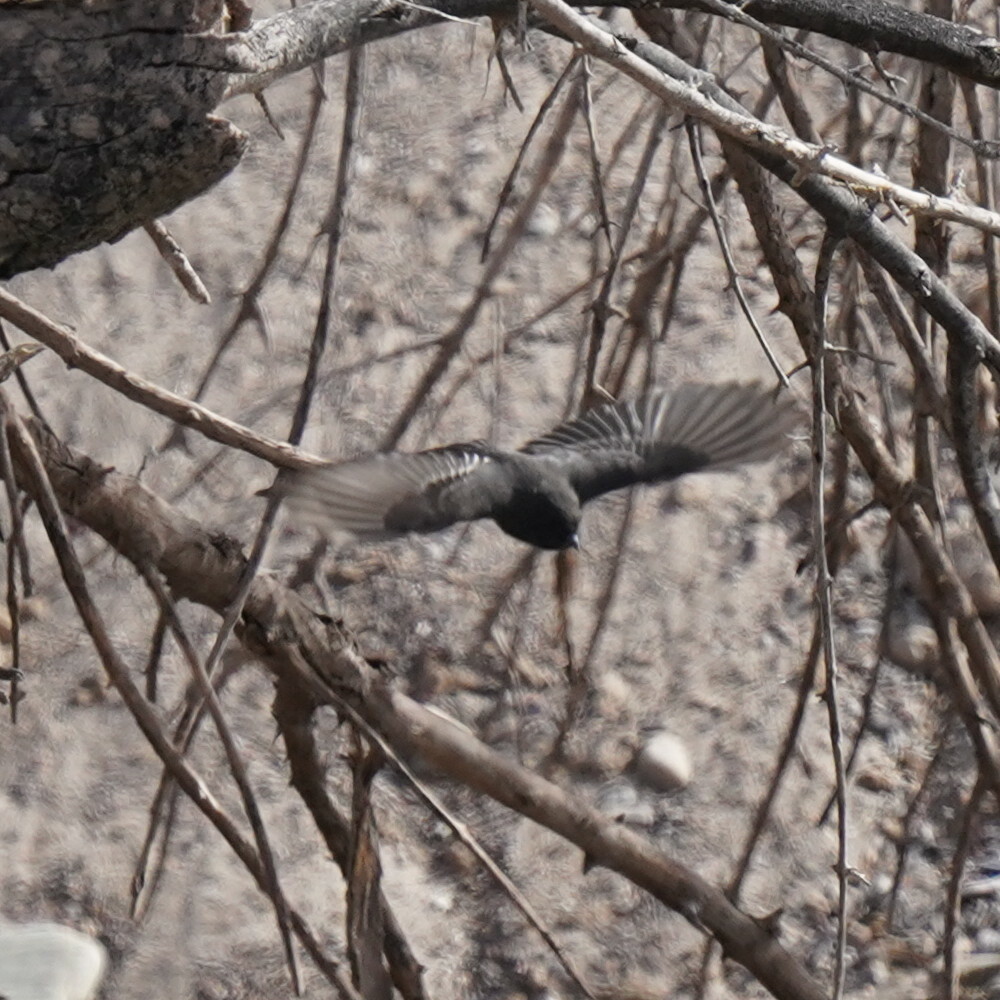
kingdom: Animalia
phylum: Chordata
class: Aves
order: Passeriformes
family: Tyrannidae
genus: Sayornis
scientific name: Sayornis nigricans
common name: Black phoebe
